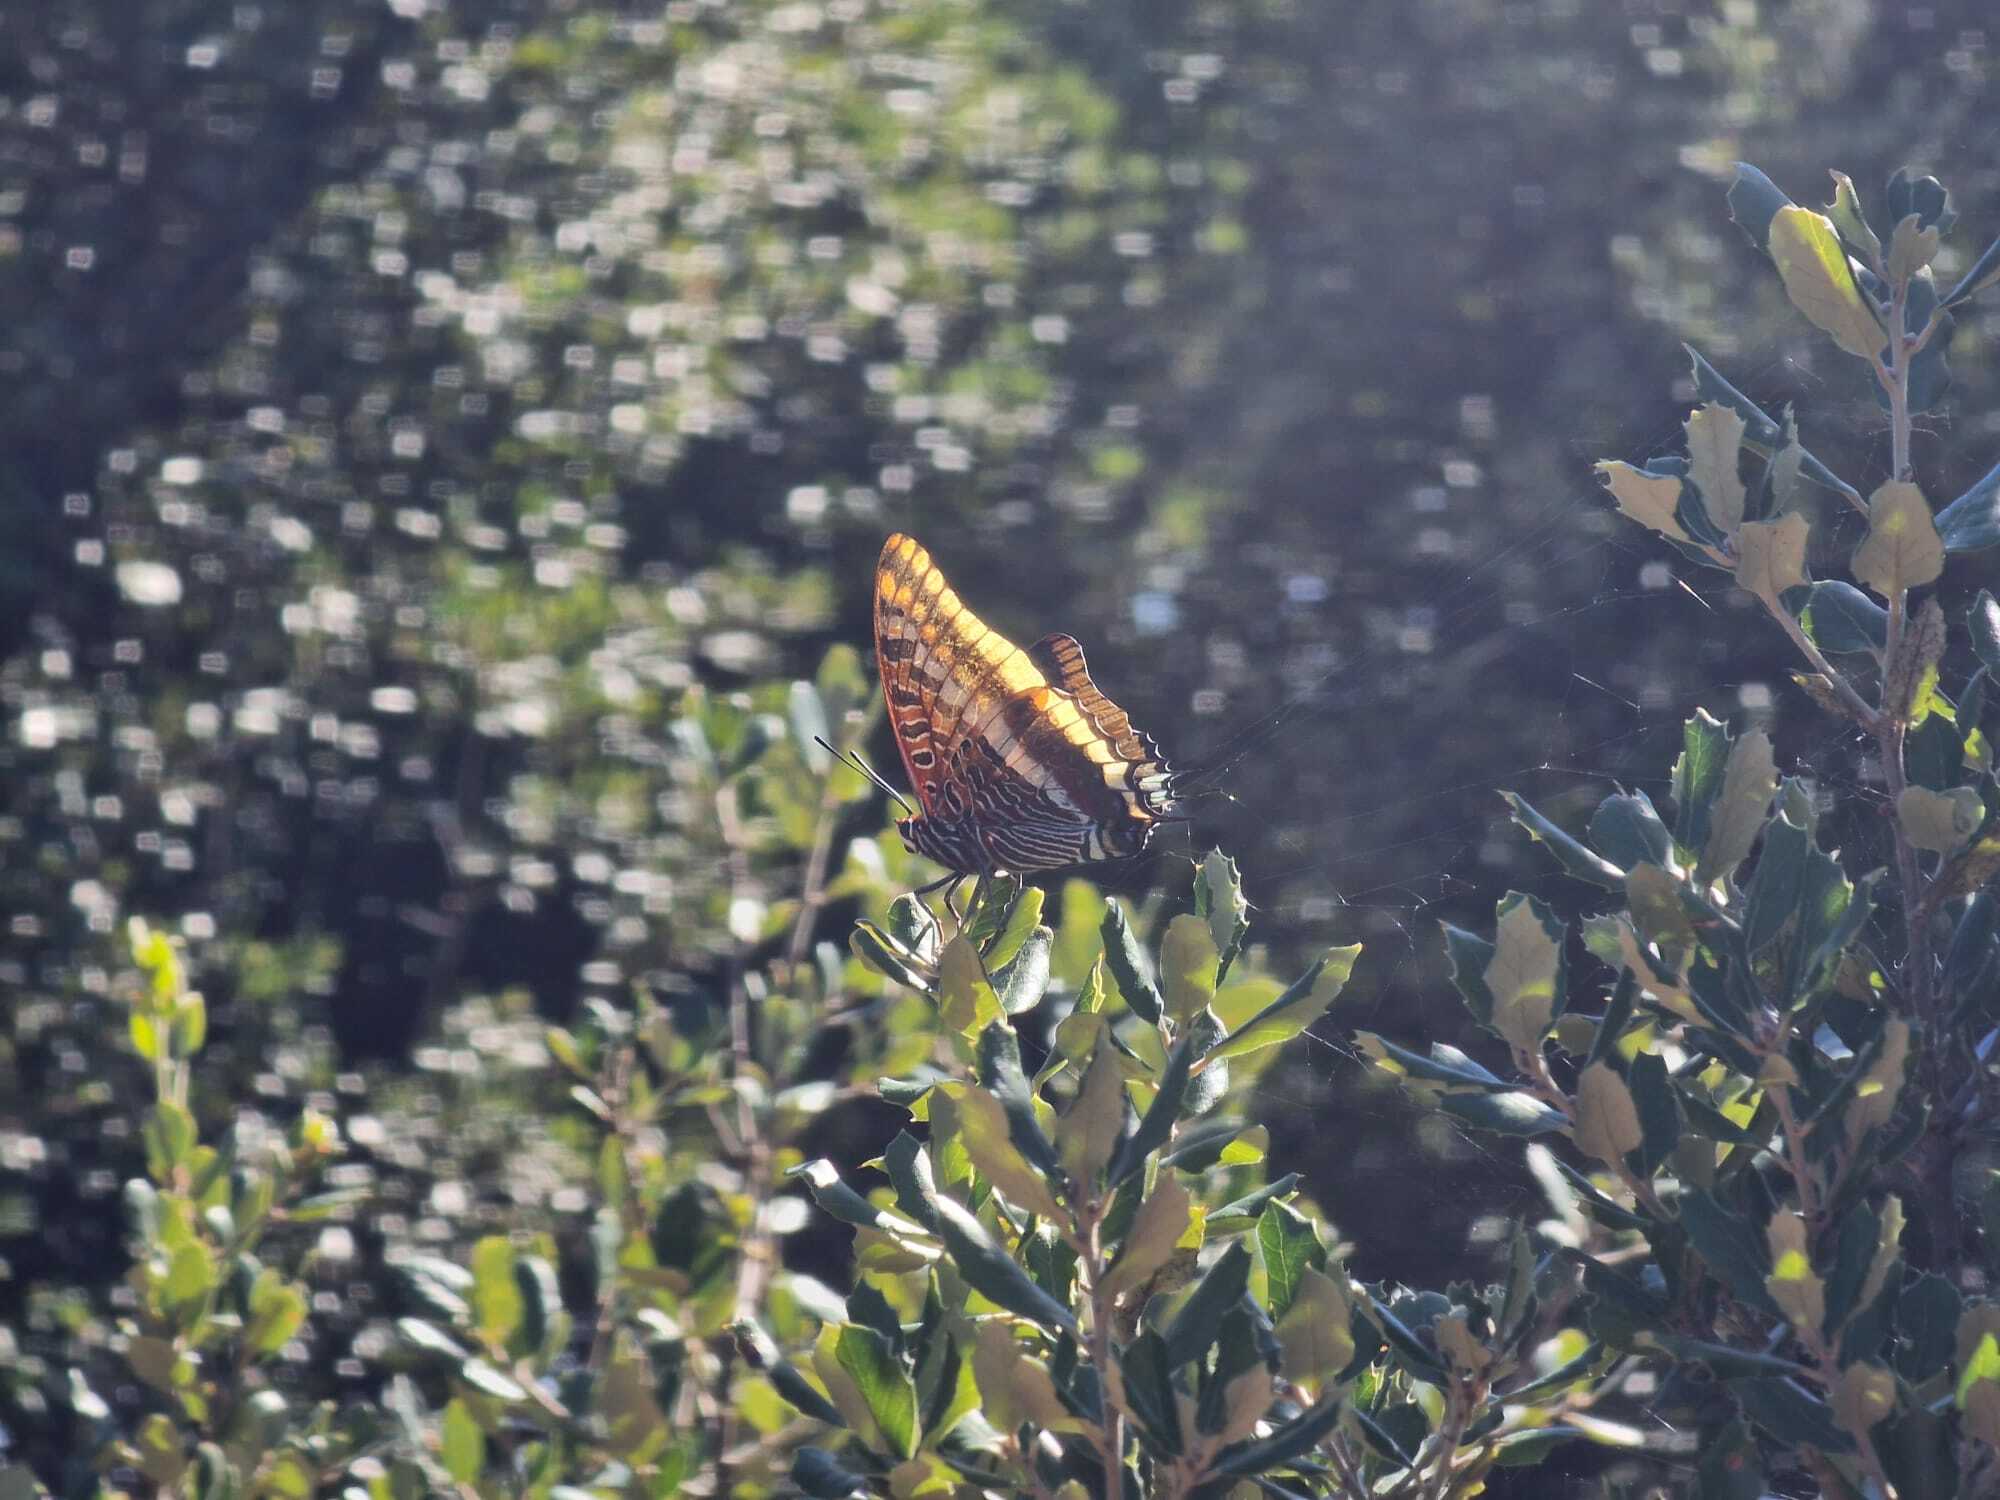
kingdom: Animalia
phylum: Arthropoda
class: Insecta
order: Lepidoptera
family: Nymphalidae
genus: Charaxes
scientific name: Charaxes jasius
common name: Two tailed pasha
